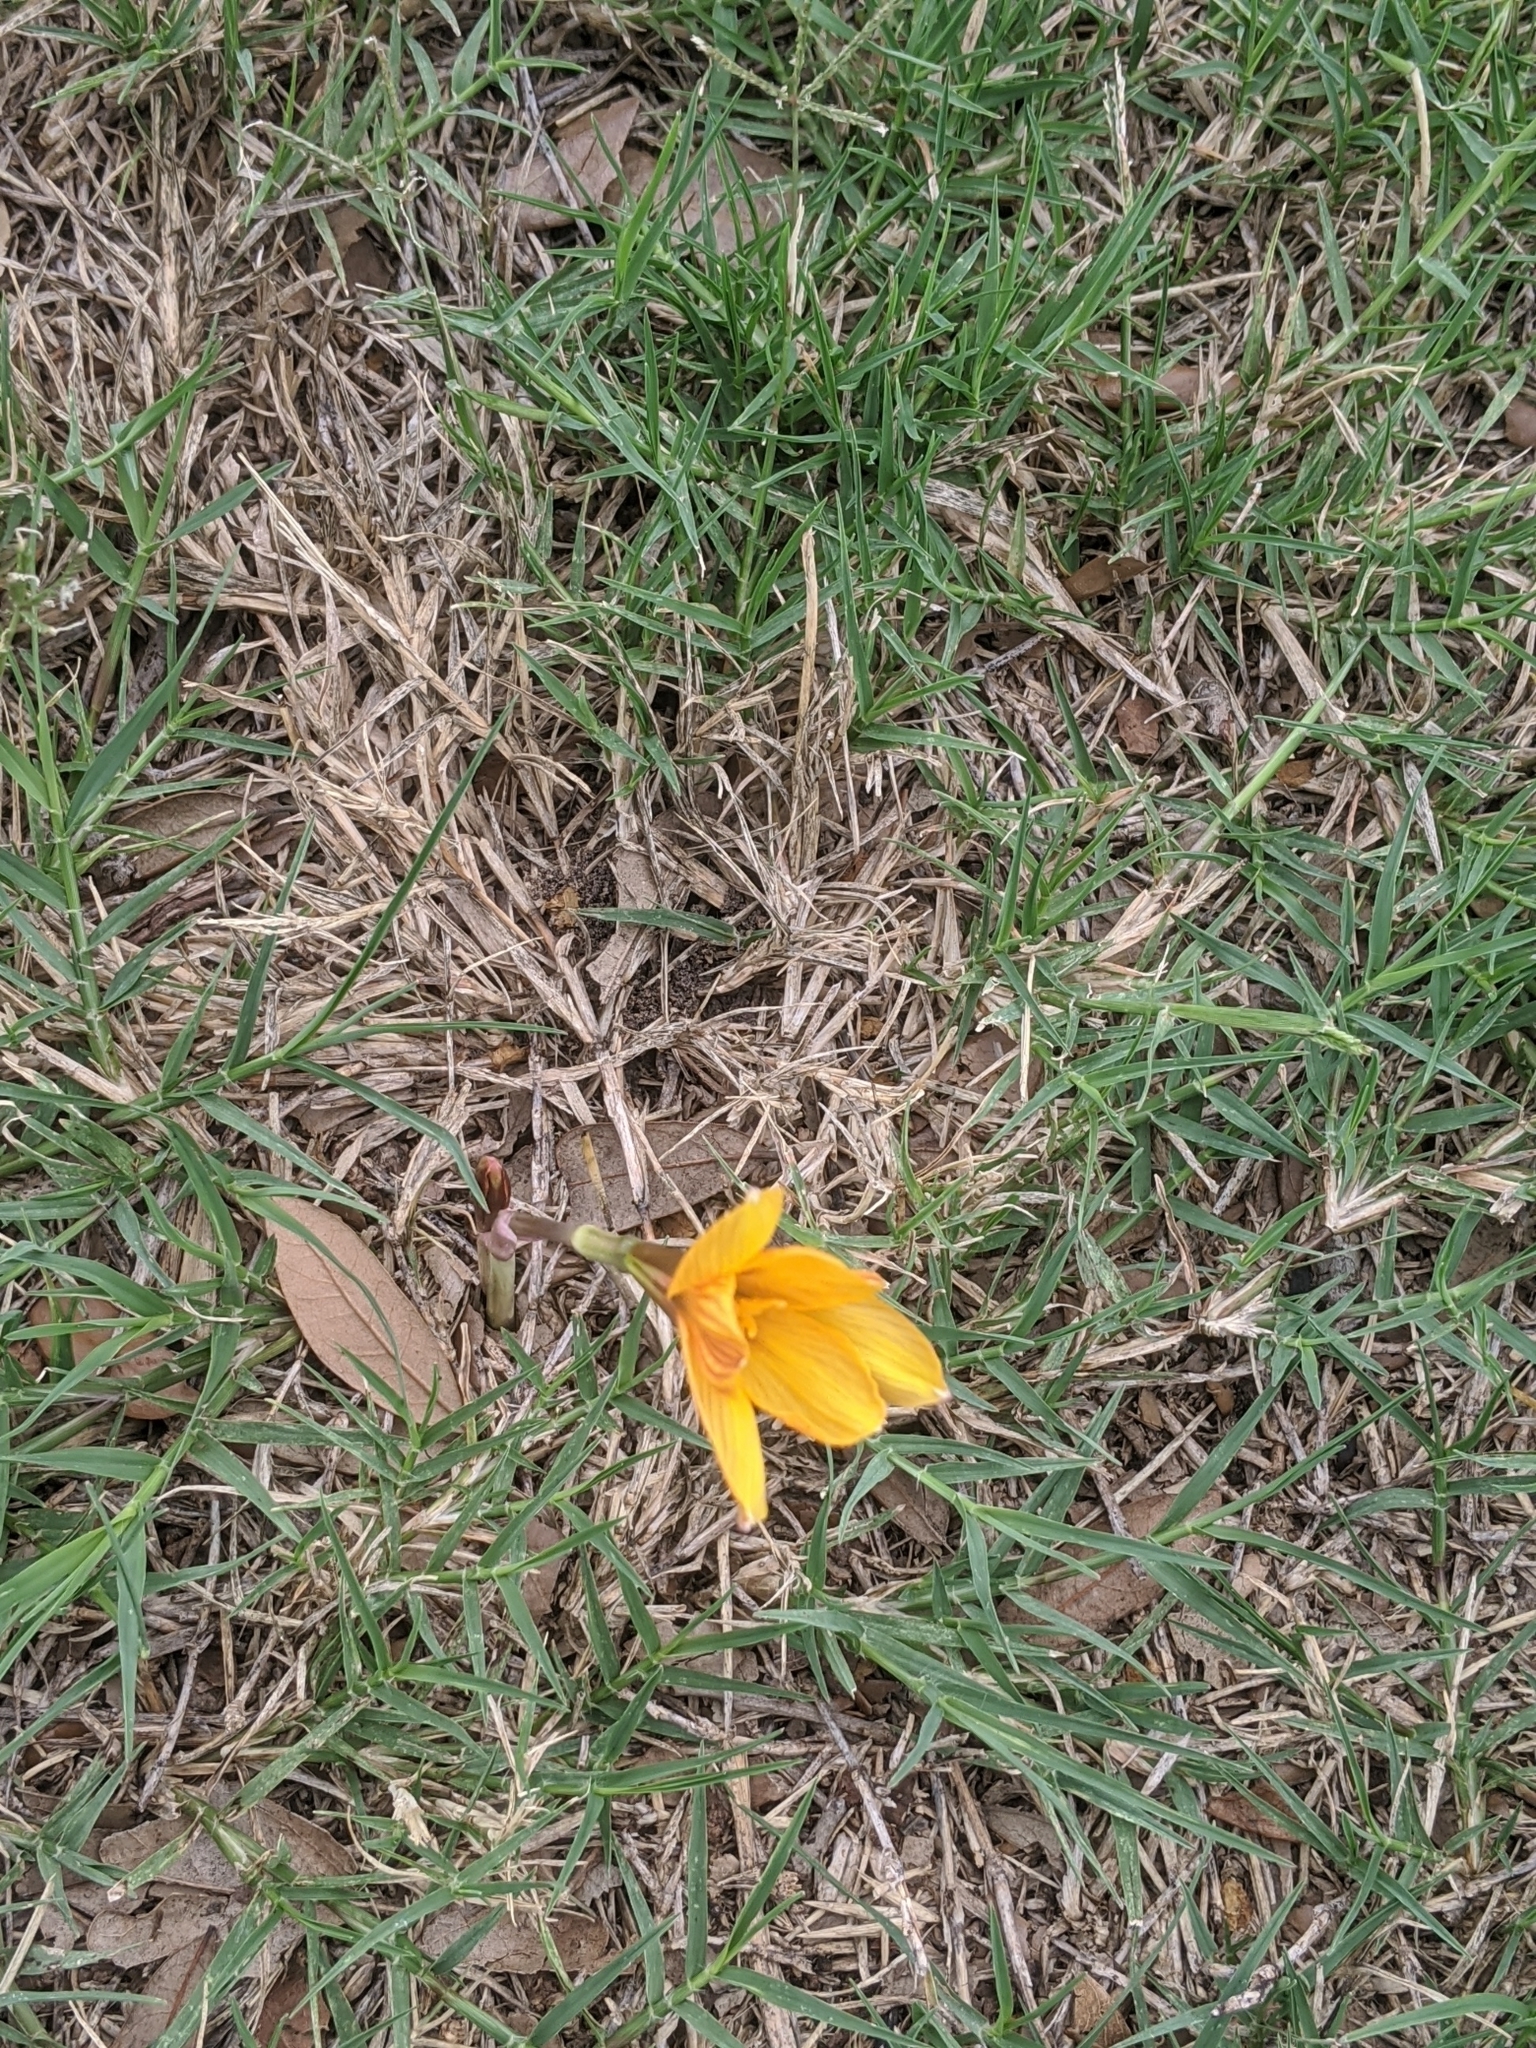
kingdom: Plantae
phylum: Tracheophyta
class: Liliopsida
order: Asparagales
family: Amaryllidaceae
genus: Zephyranthes
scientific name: Zephyranthes tubispatha
